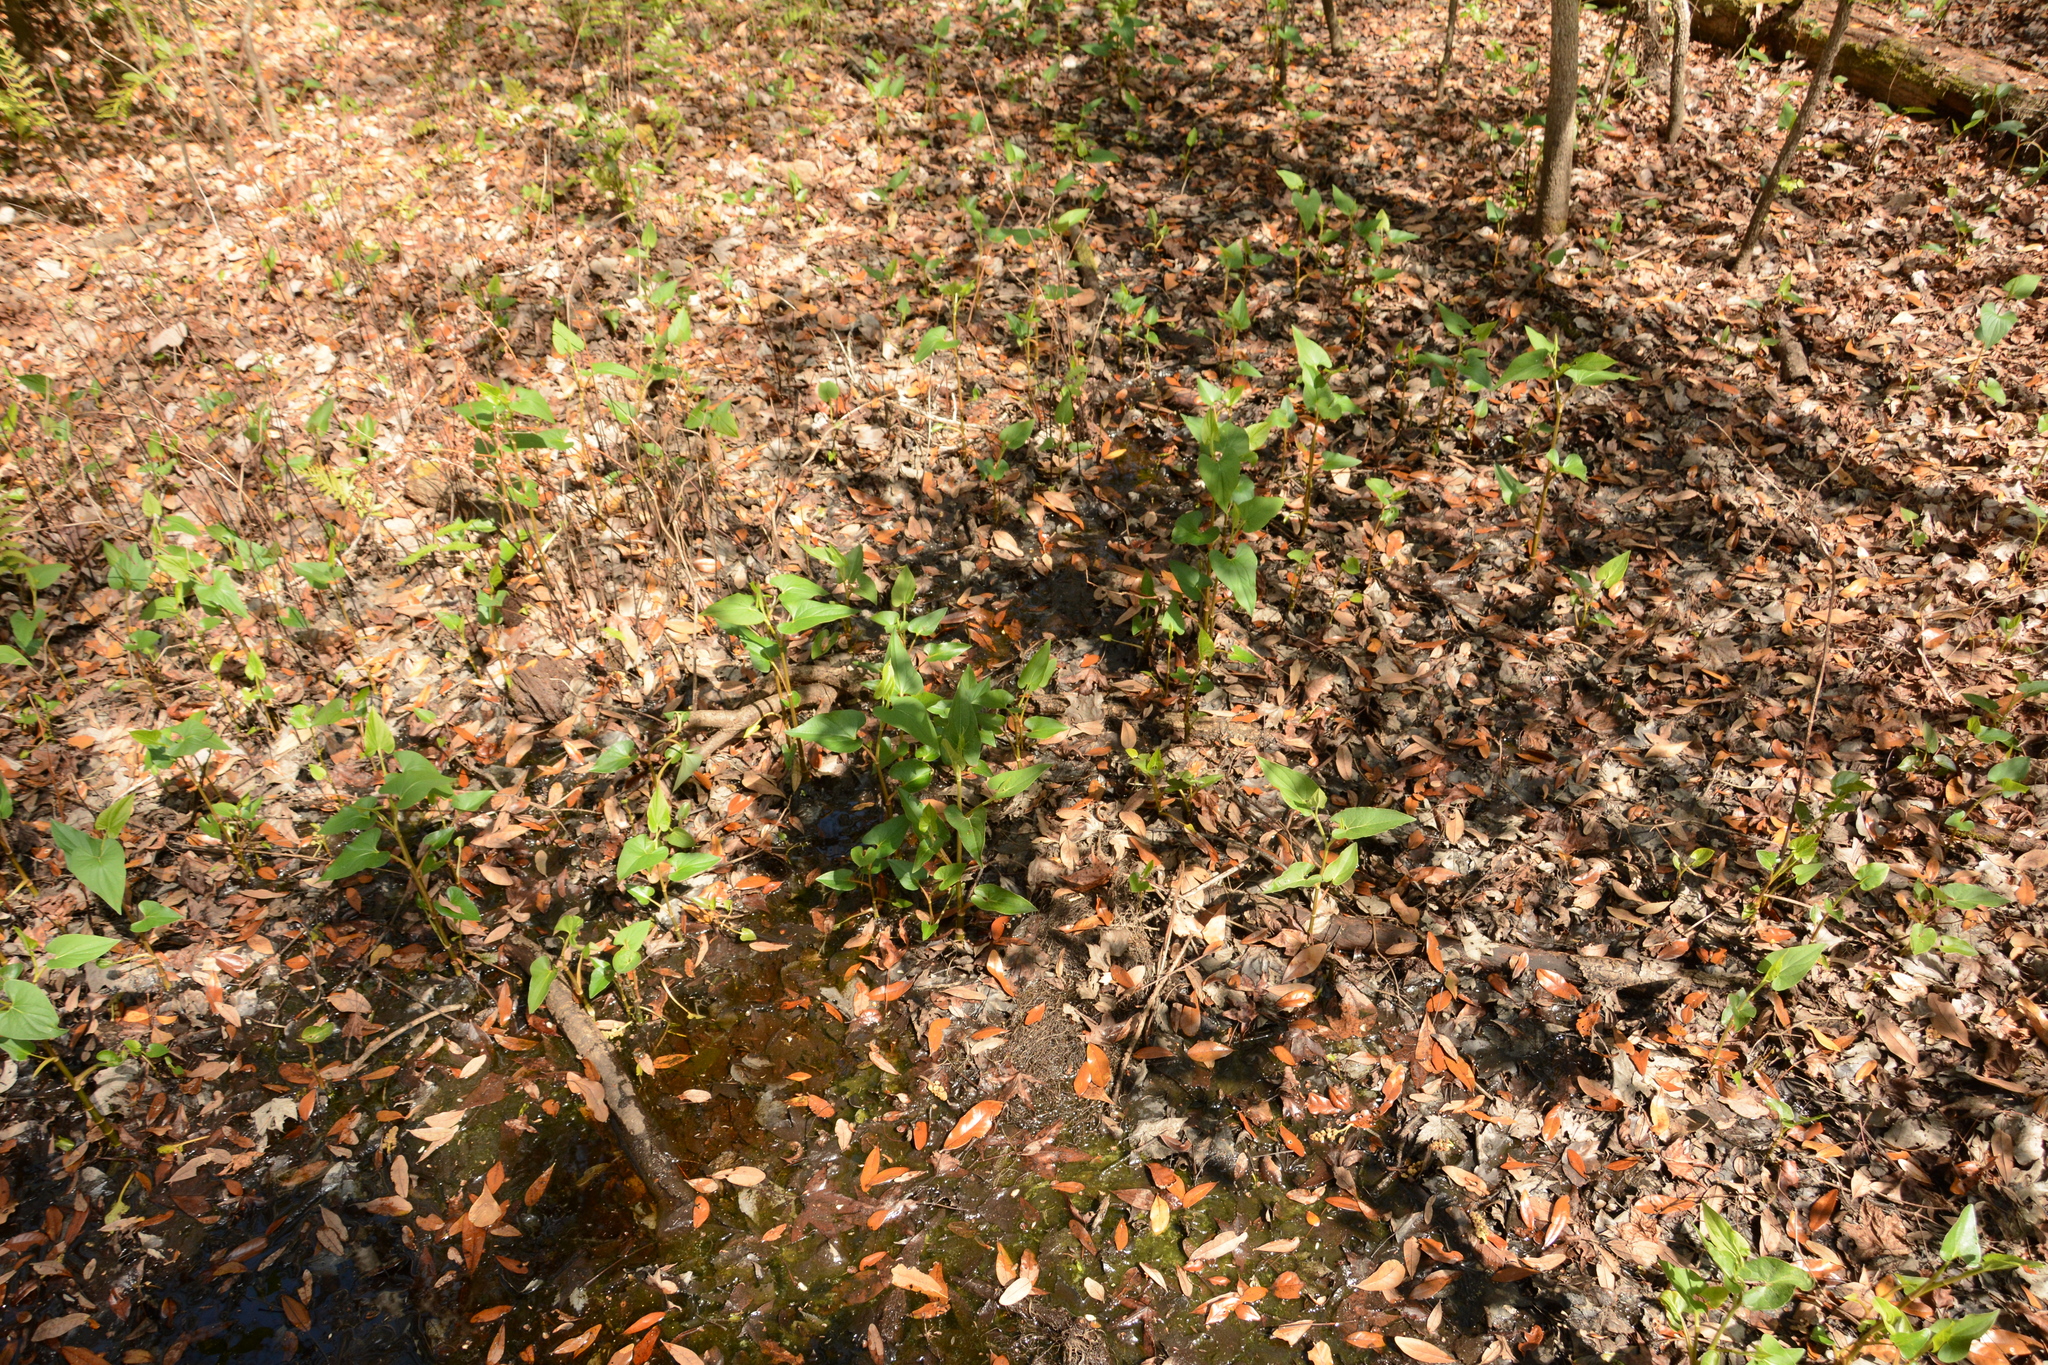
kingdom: Plantae
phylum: Tracheophyta
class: Magnoliopsida
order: Piperales
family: Saururaceae
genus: Saururus
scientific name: Saururus cernuus
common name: Lizard's-tail
